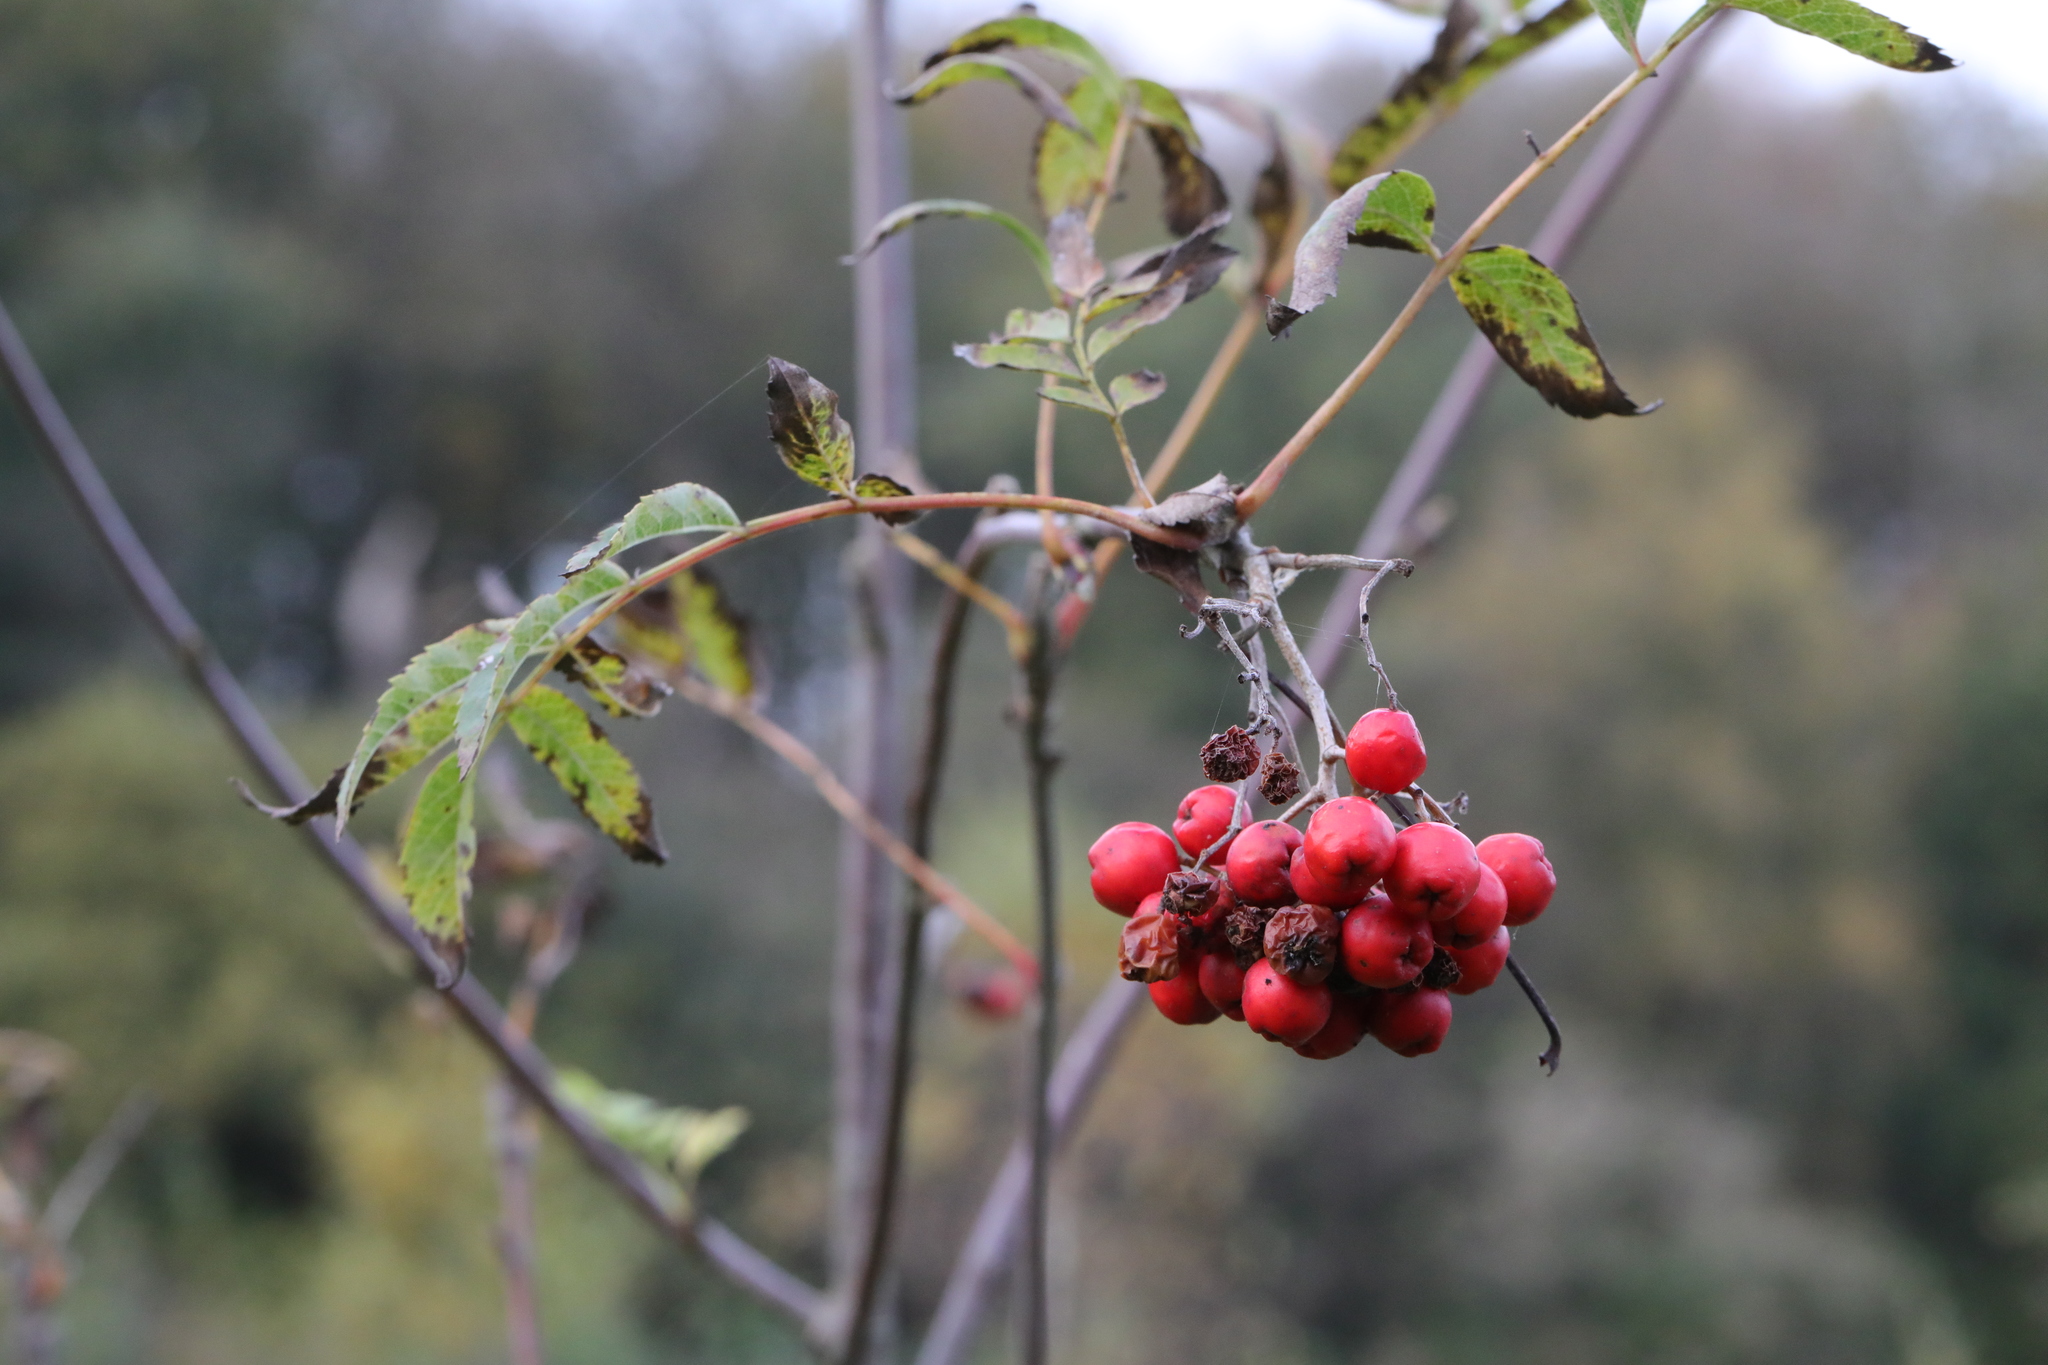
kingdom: Plantae
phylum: Tracheophyta
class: Magnoliopsida
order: Rosales
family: Rosaceae
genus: Sorbus
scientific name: Sorbus aucuparia
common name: Rowan
